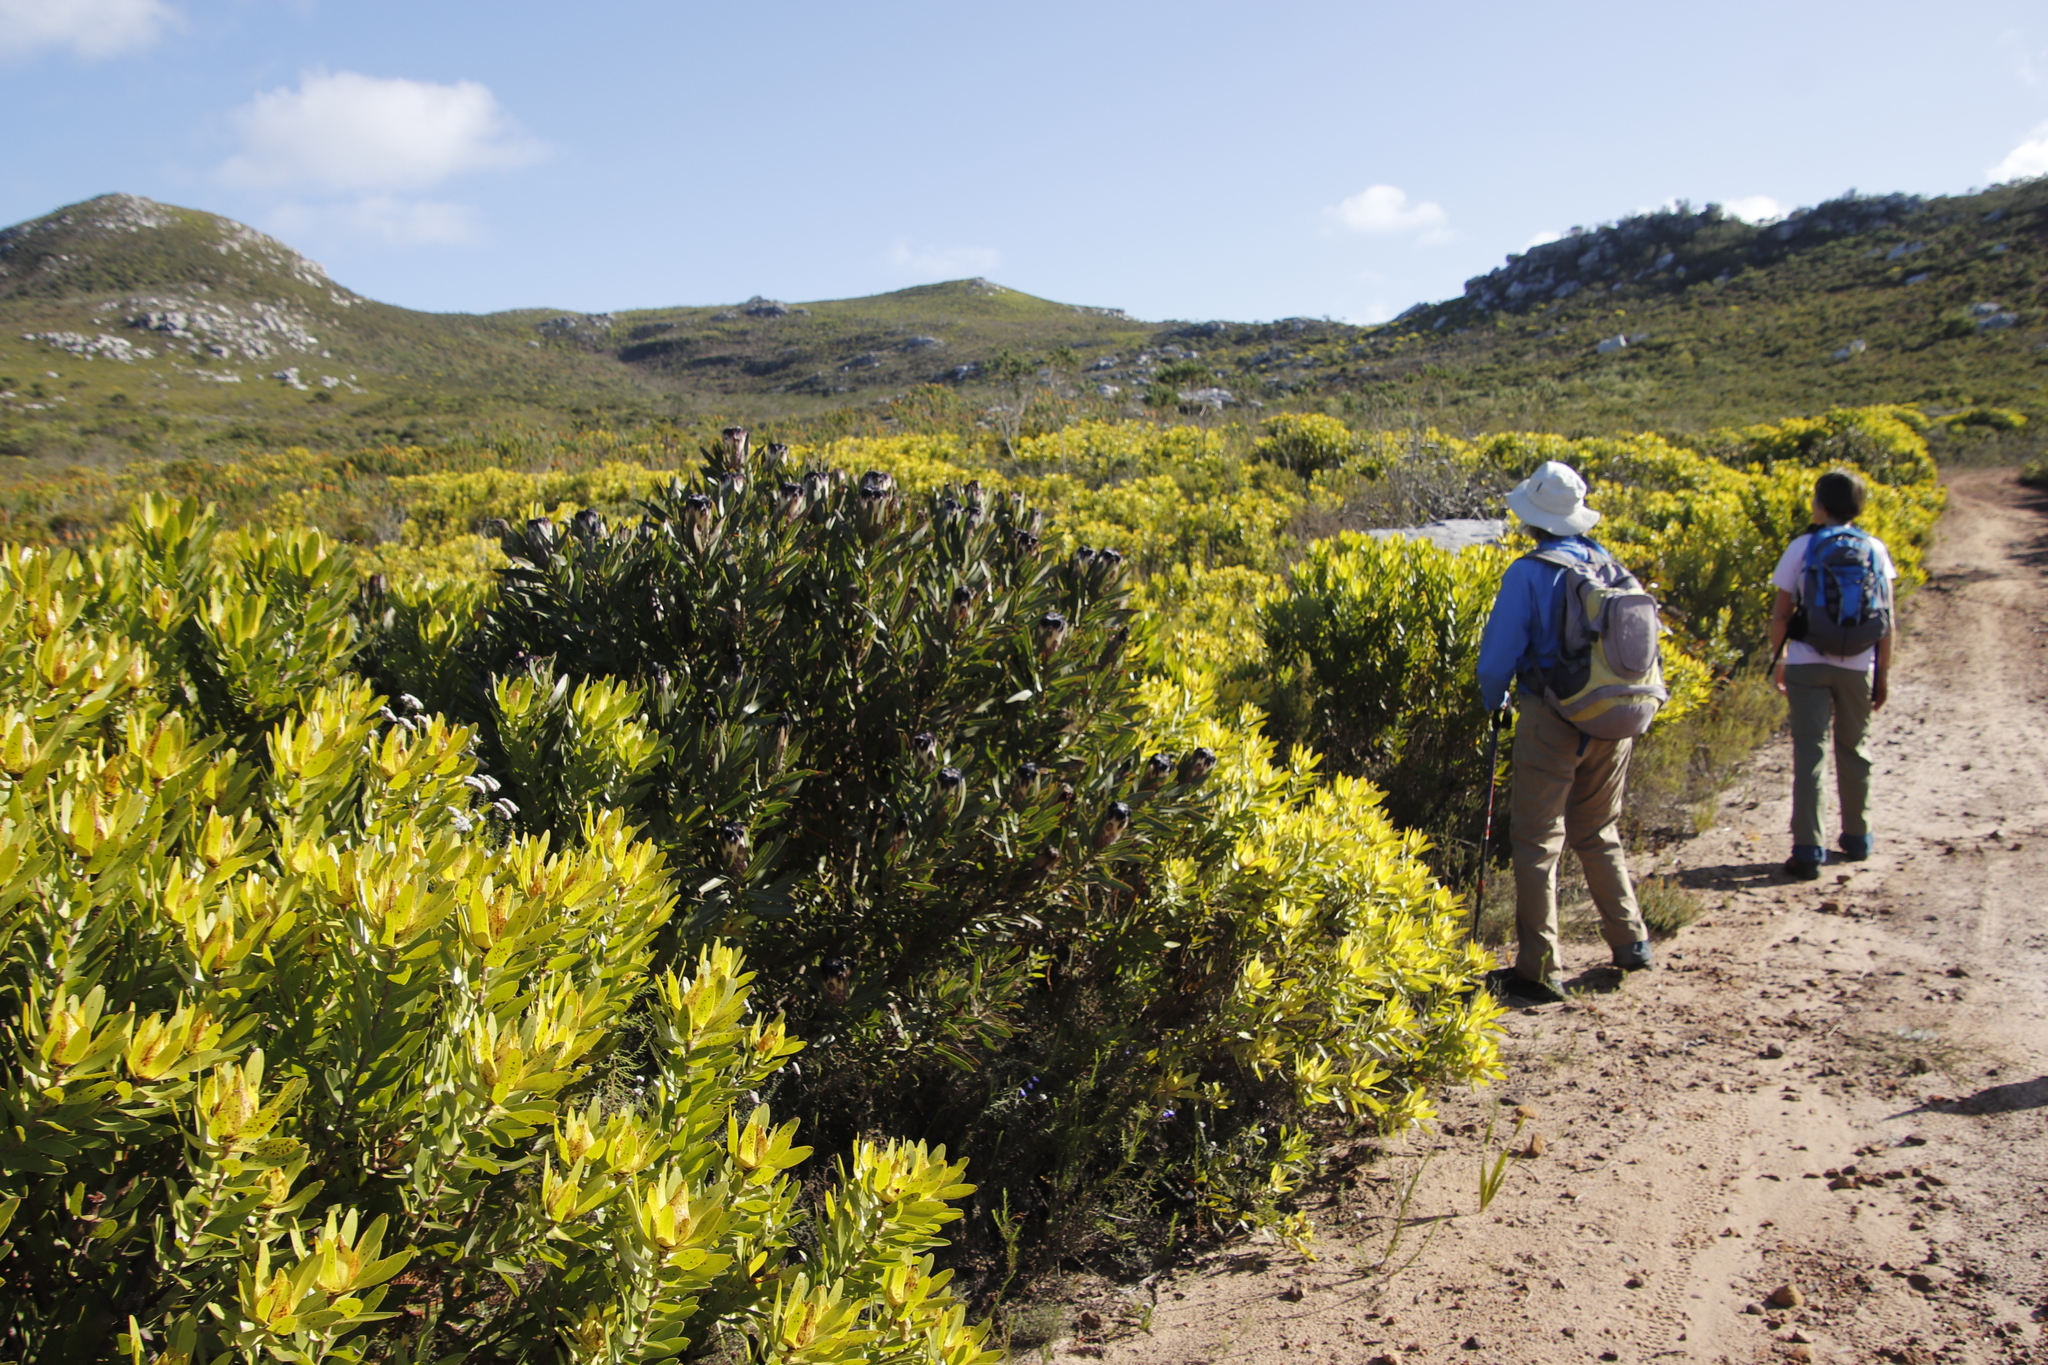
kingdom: Plantae
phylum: Tracheophyta
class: Magnoliopsida
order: Proteales
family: Proteaceae
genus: Leucadendron
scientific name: Leucadendron laureolum
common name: Golden sunshinebush
